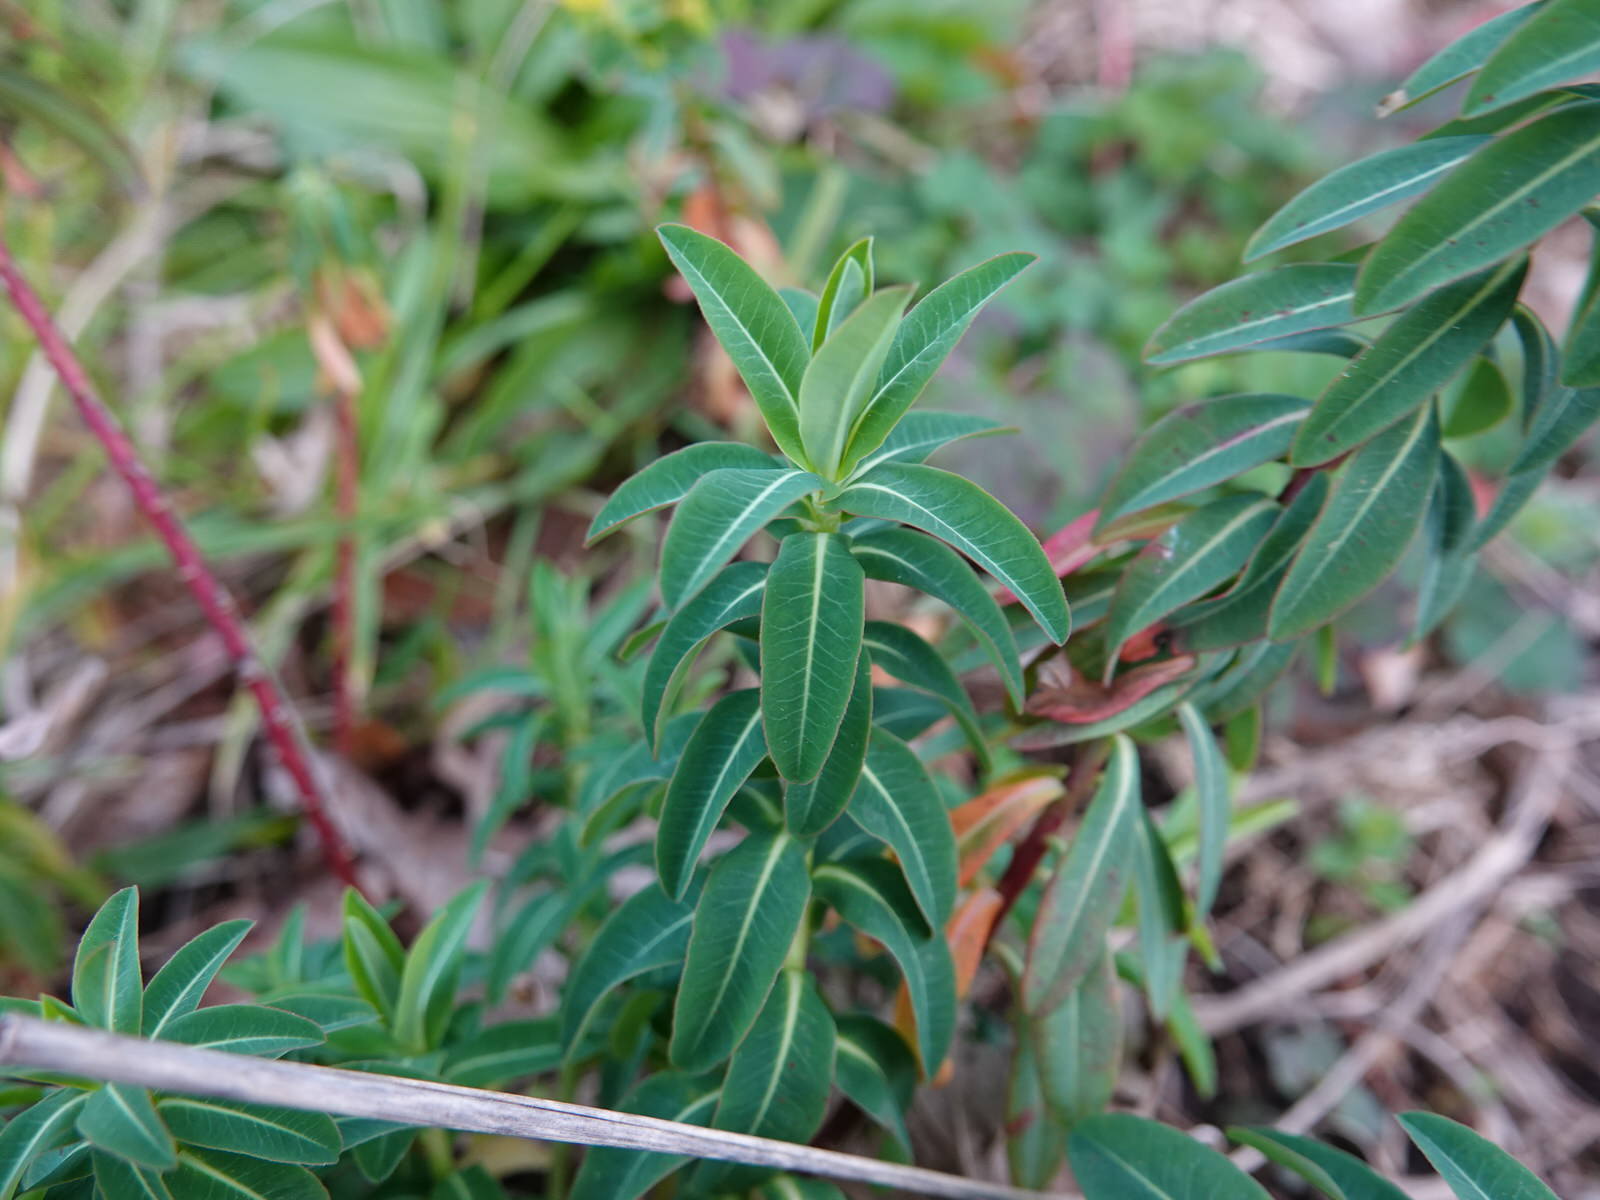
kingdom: Plantae
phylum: Tracheophyta
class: Magnoliopsida
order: Malpighiales
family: Euphorbiaceae
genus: Euphorbia
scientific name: Euphorbia oblongata
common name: Balkan spurge
